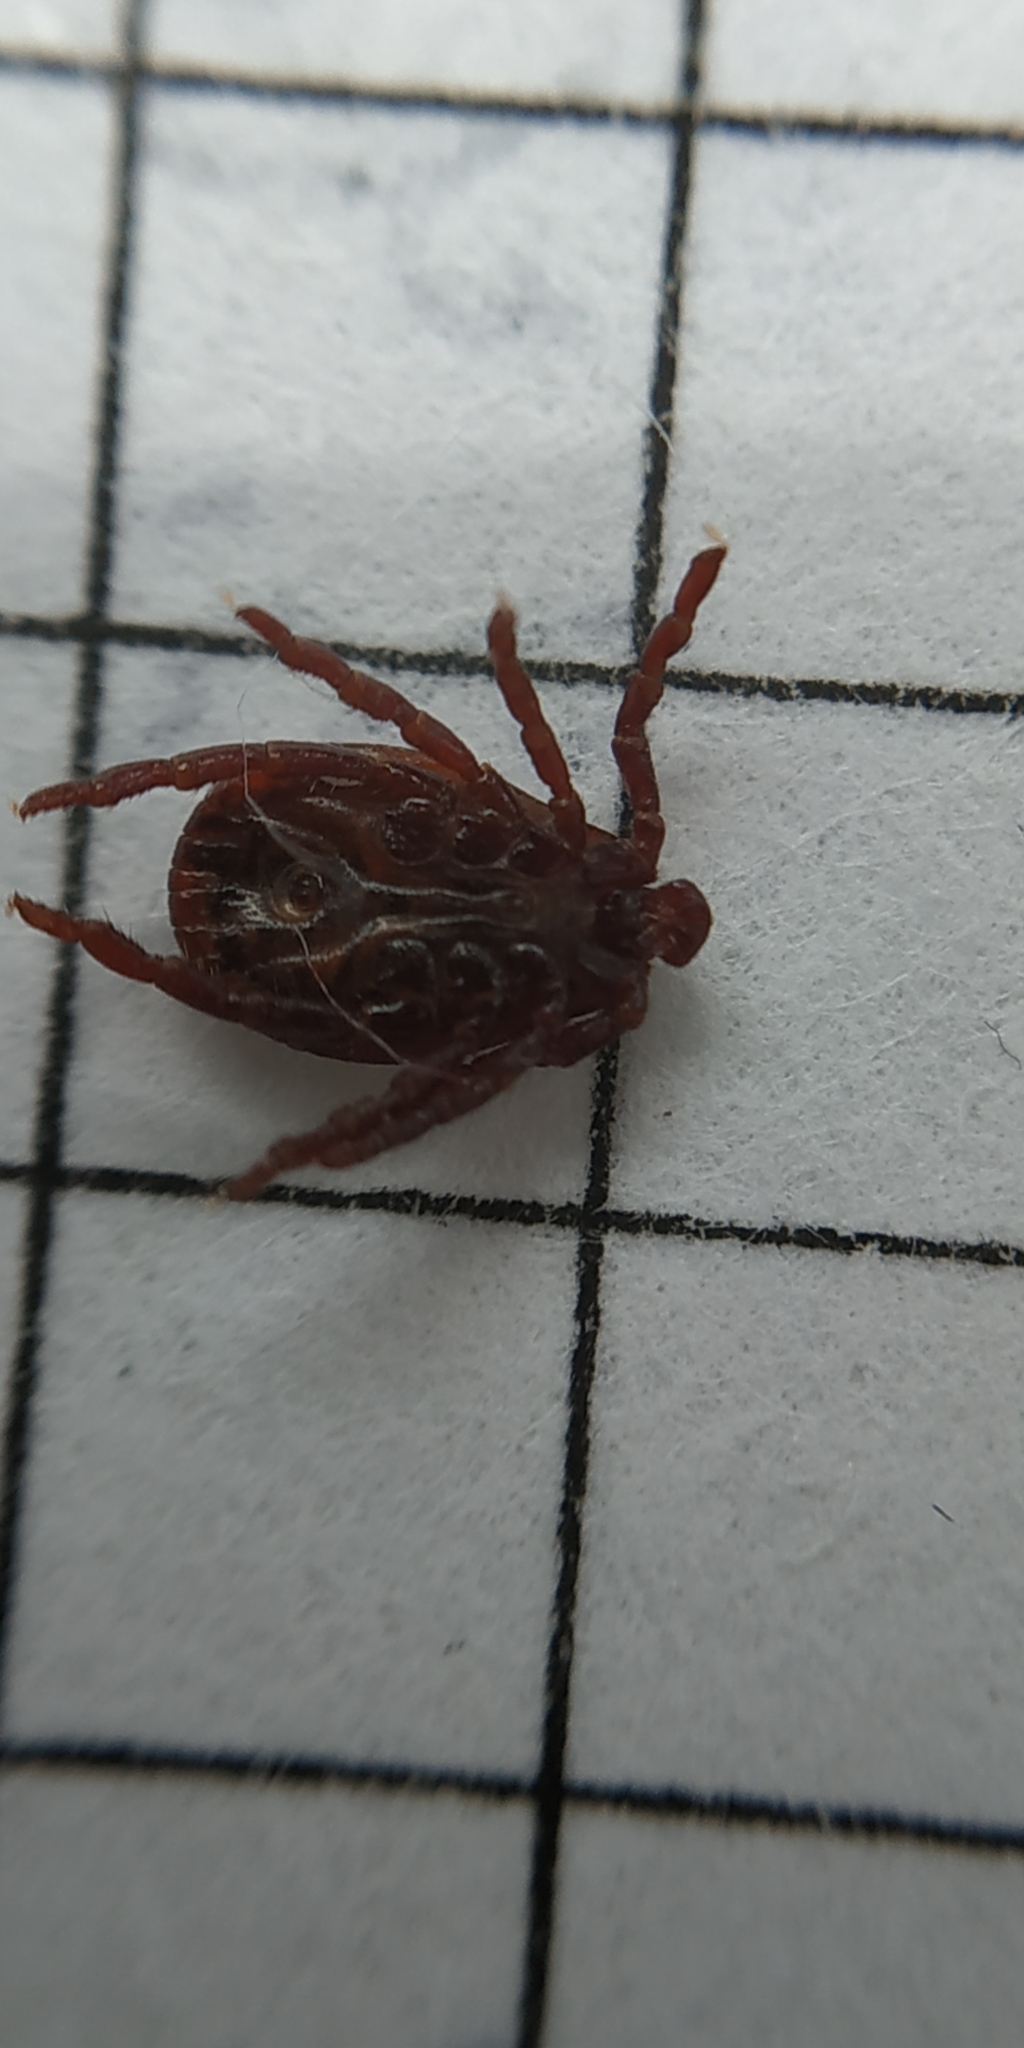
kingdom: Animalia
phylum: Arthropoda
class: Arachnida
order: Ixodida
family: Ixodidae
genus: Dermacentor
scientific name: Dermacentor reticulatus
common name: Ornate cow tick
